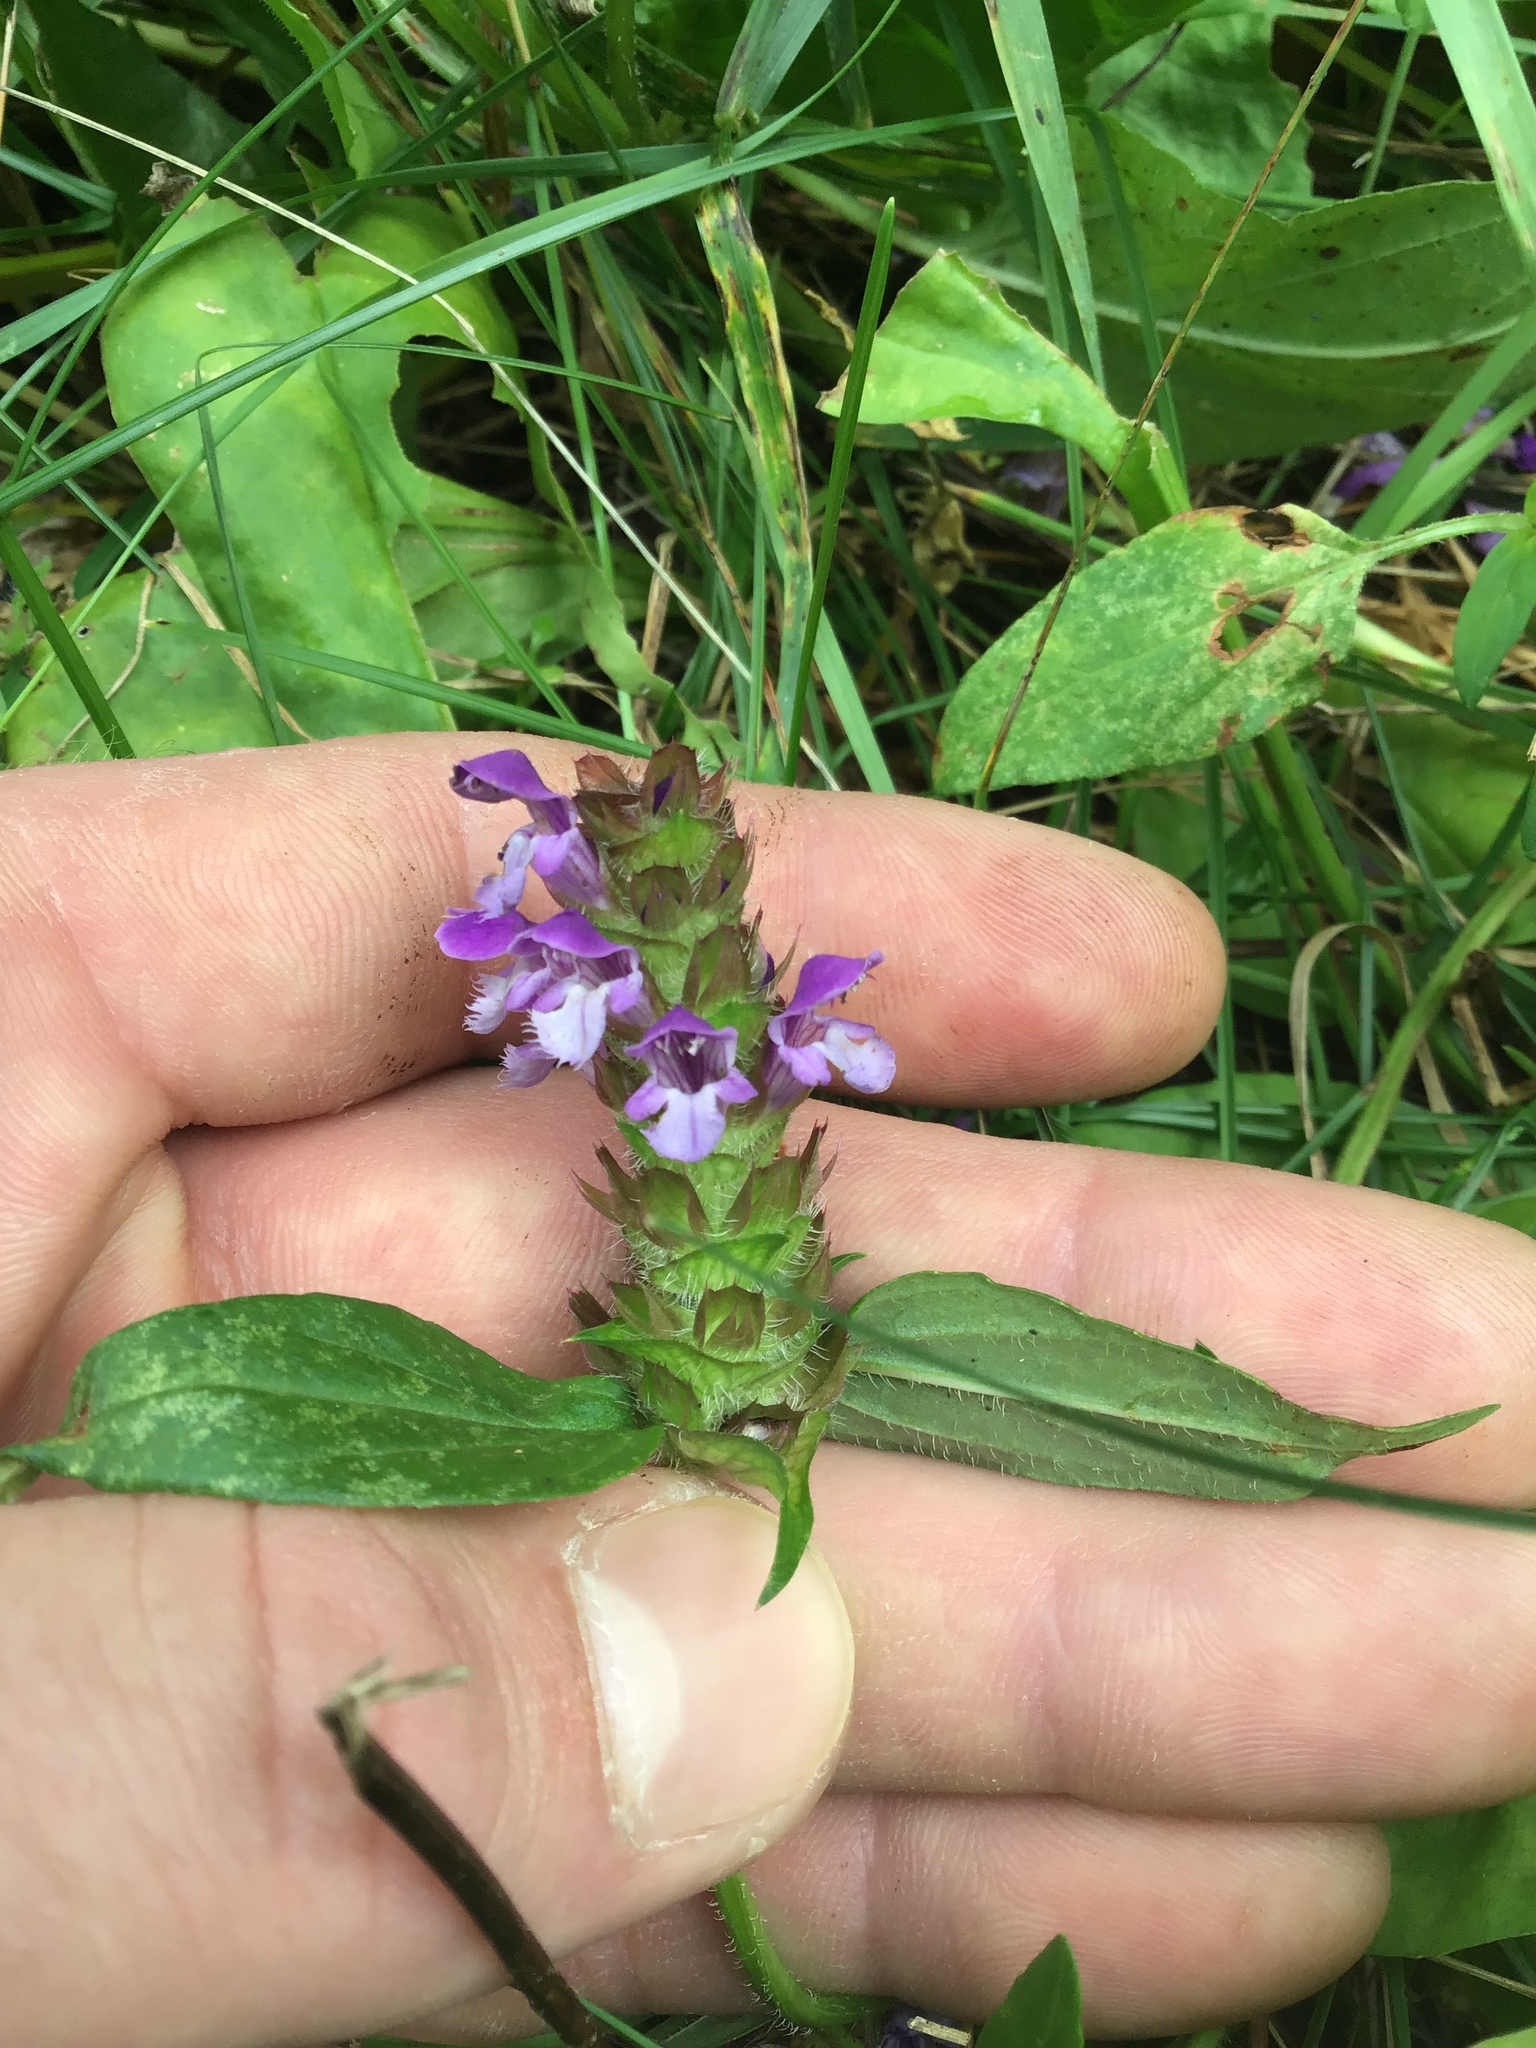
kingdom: Plantae
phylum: Tracheophyta
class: Magnoliopsida
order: Lamiales
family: Lamiaceae
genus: Prunella
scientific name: Prunella vulgaris
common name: Heal-all
